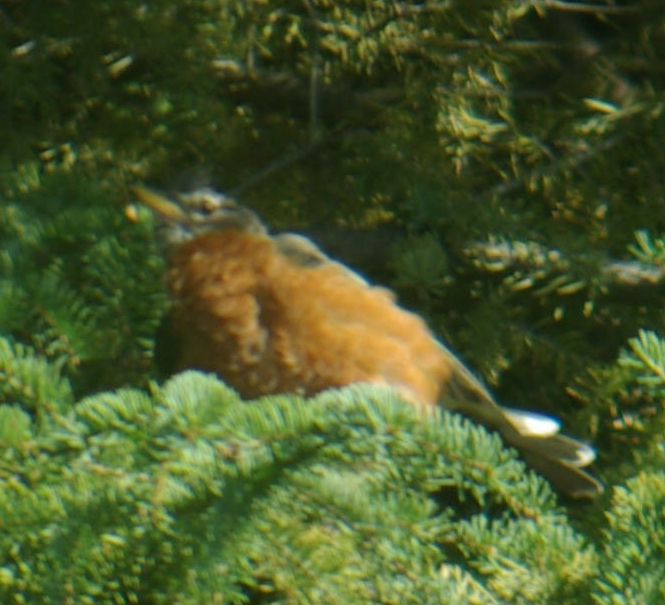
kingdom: Animalia
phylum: Chordata
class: Aves
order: Passeriformes
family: Turdidae
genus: Turdus
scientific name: Turdus migratorius
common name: American robin
